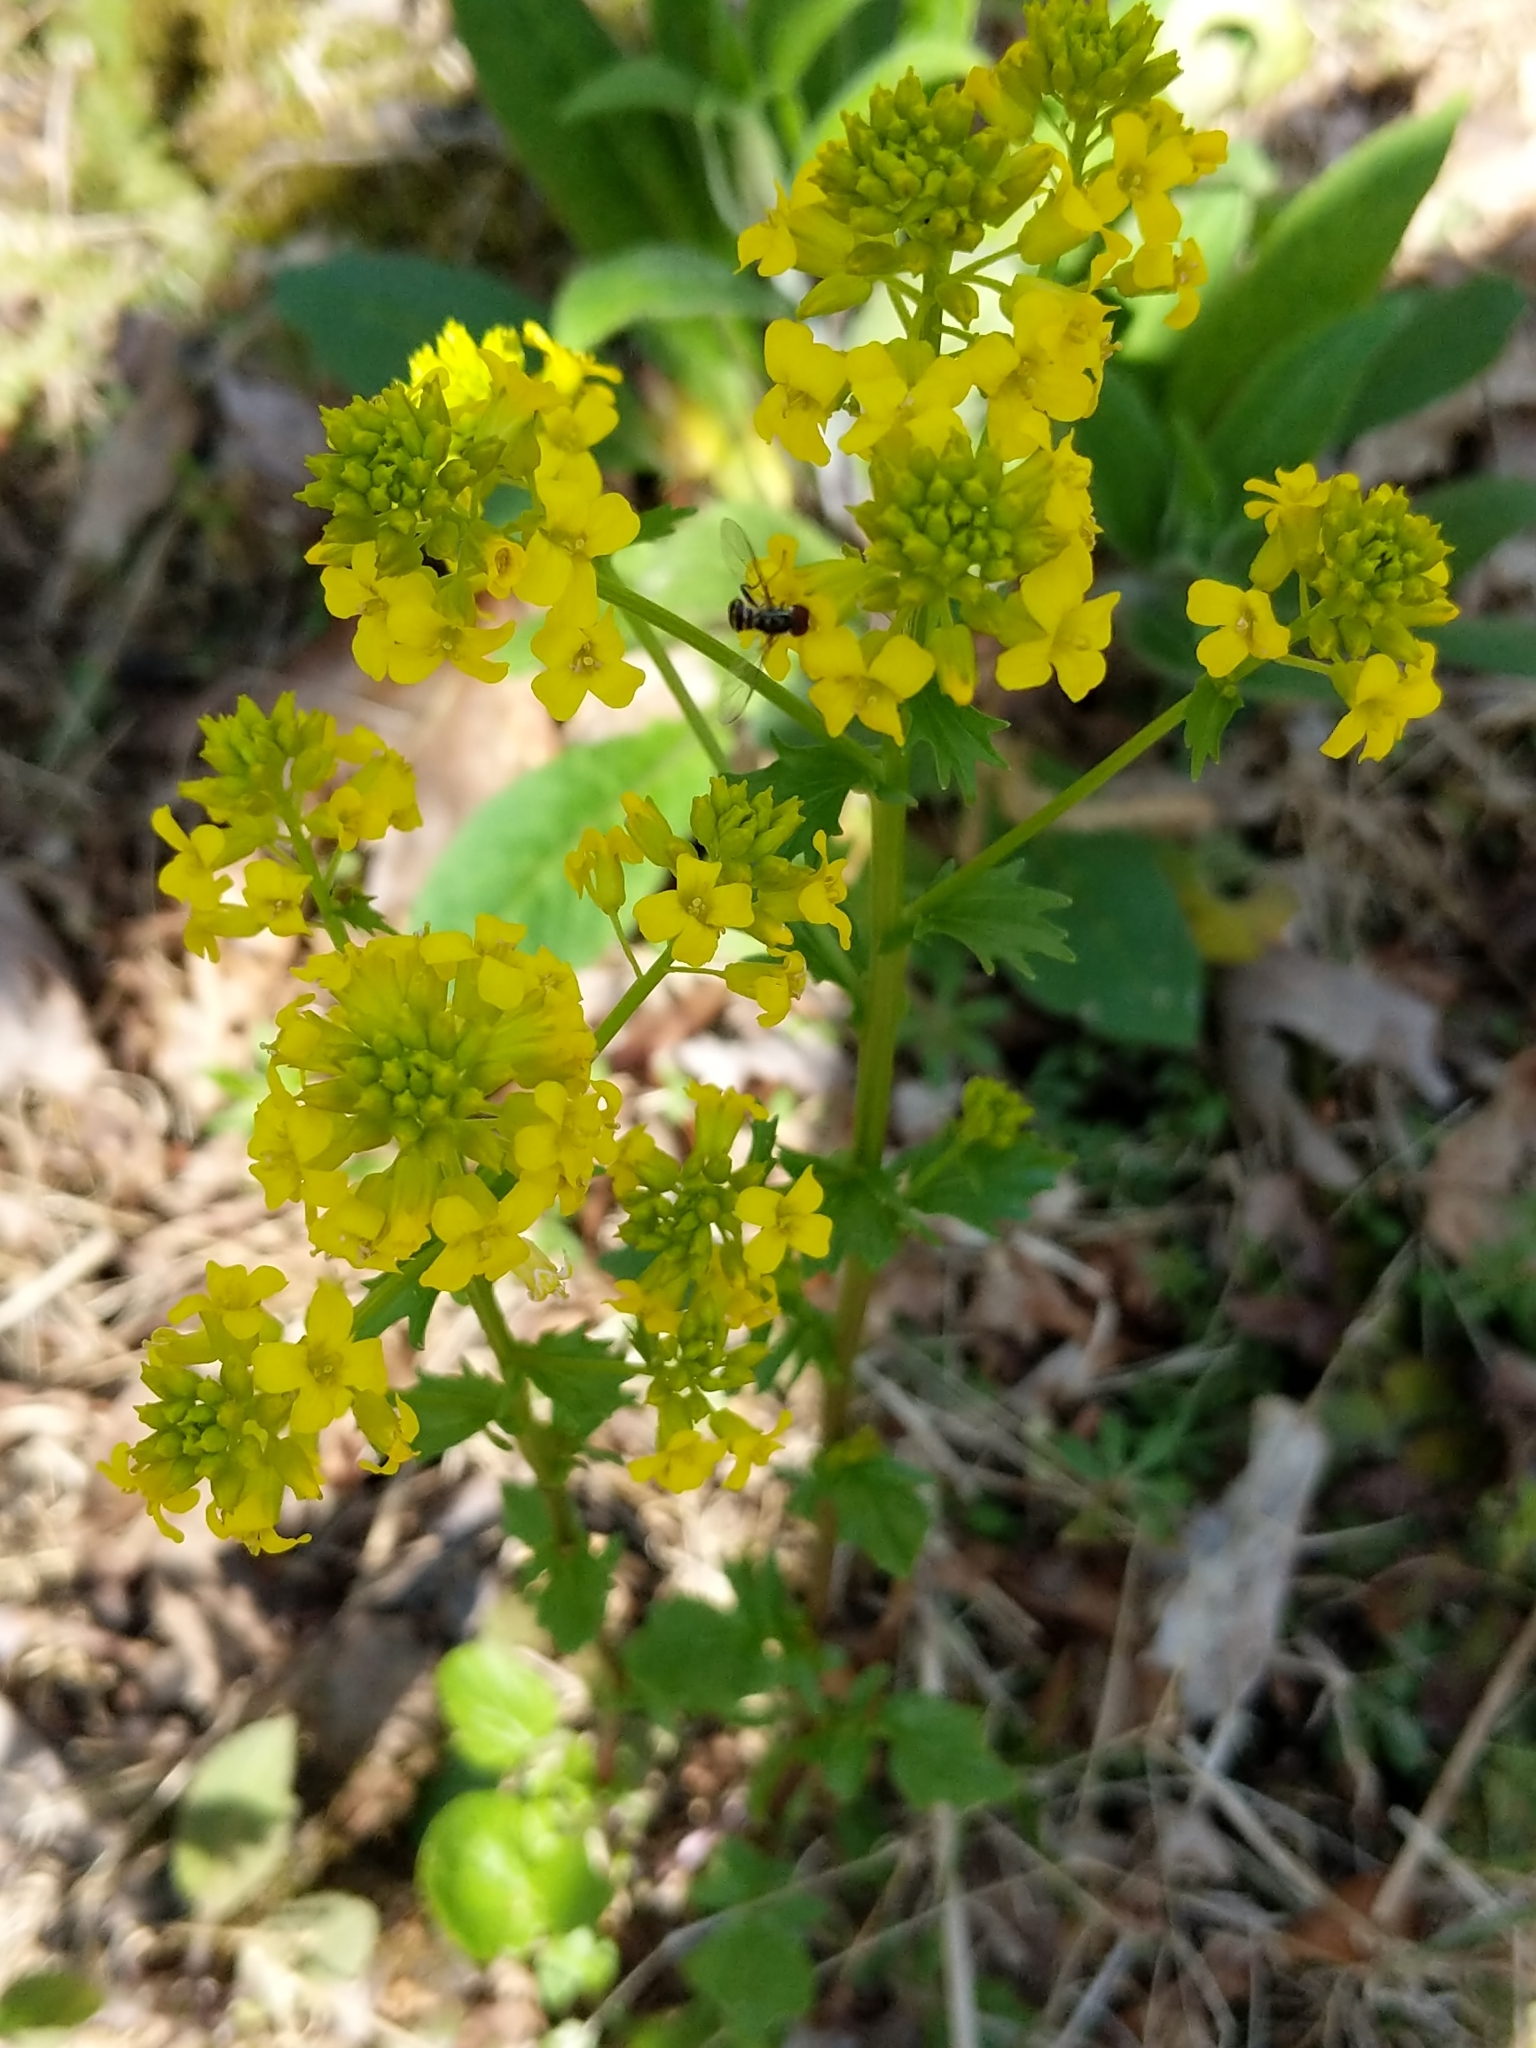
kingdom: Plantae
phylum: Tracheophyta
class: Magnoliopsida
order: Brassicales
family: Brassicaceae
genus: Barbarea
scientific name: Barbarea vulgaris
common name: Cressy-greens
